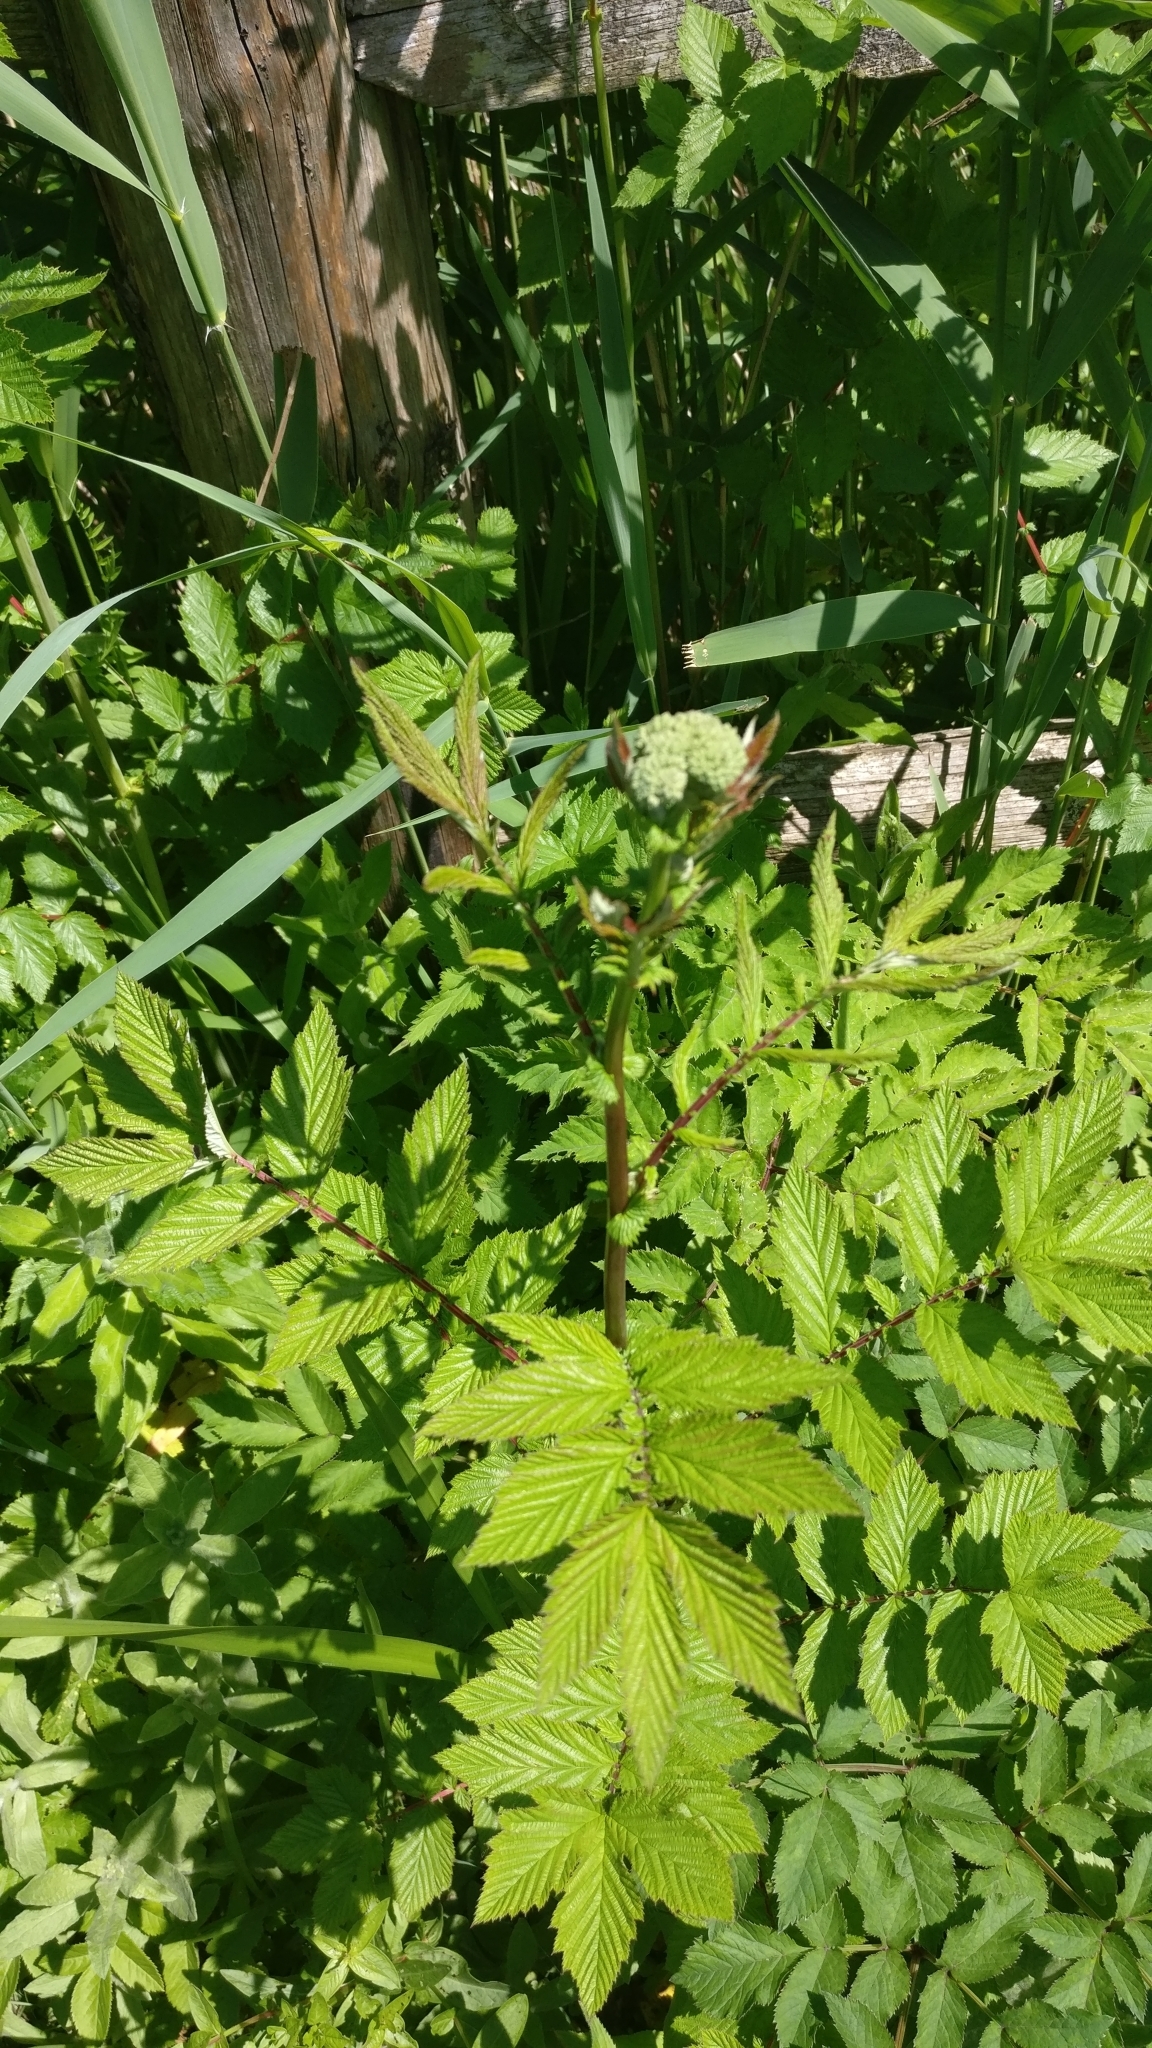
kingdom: Plantae
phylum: Tracheophyta
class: Magnoliopsida
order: Rosales
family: Rosaceae
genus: Filipendula
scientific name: Filipendula ulmaria
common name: Meadowsweet
